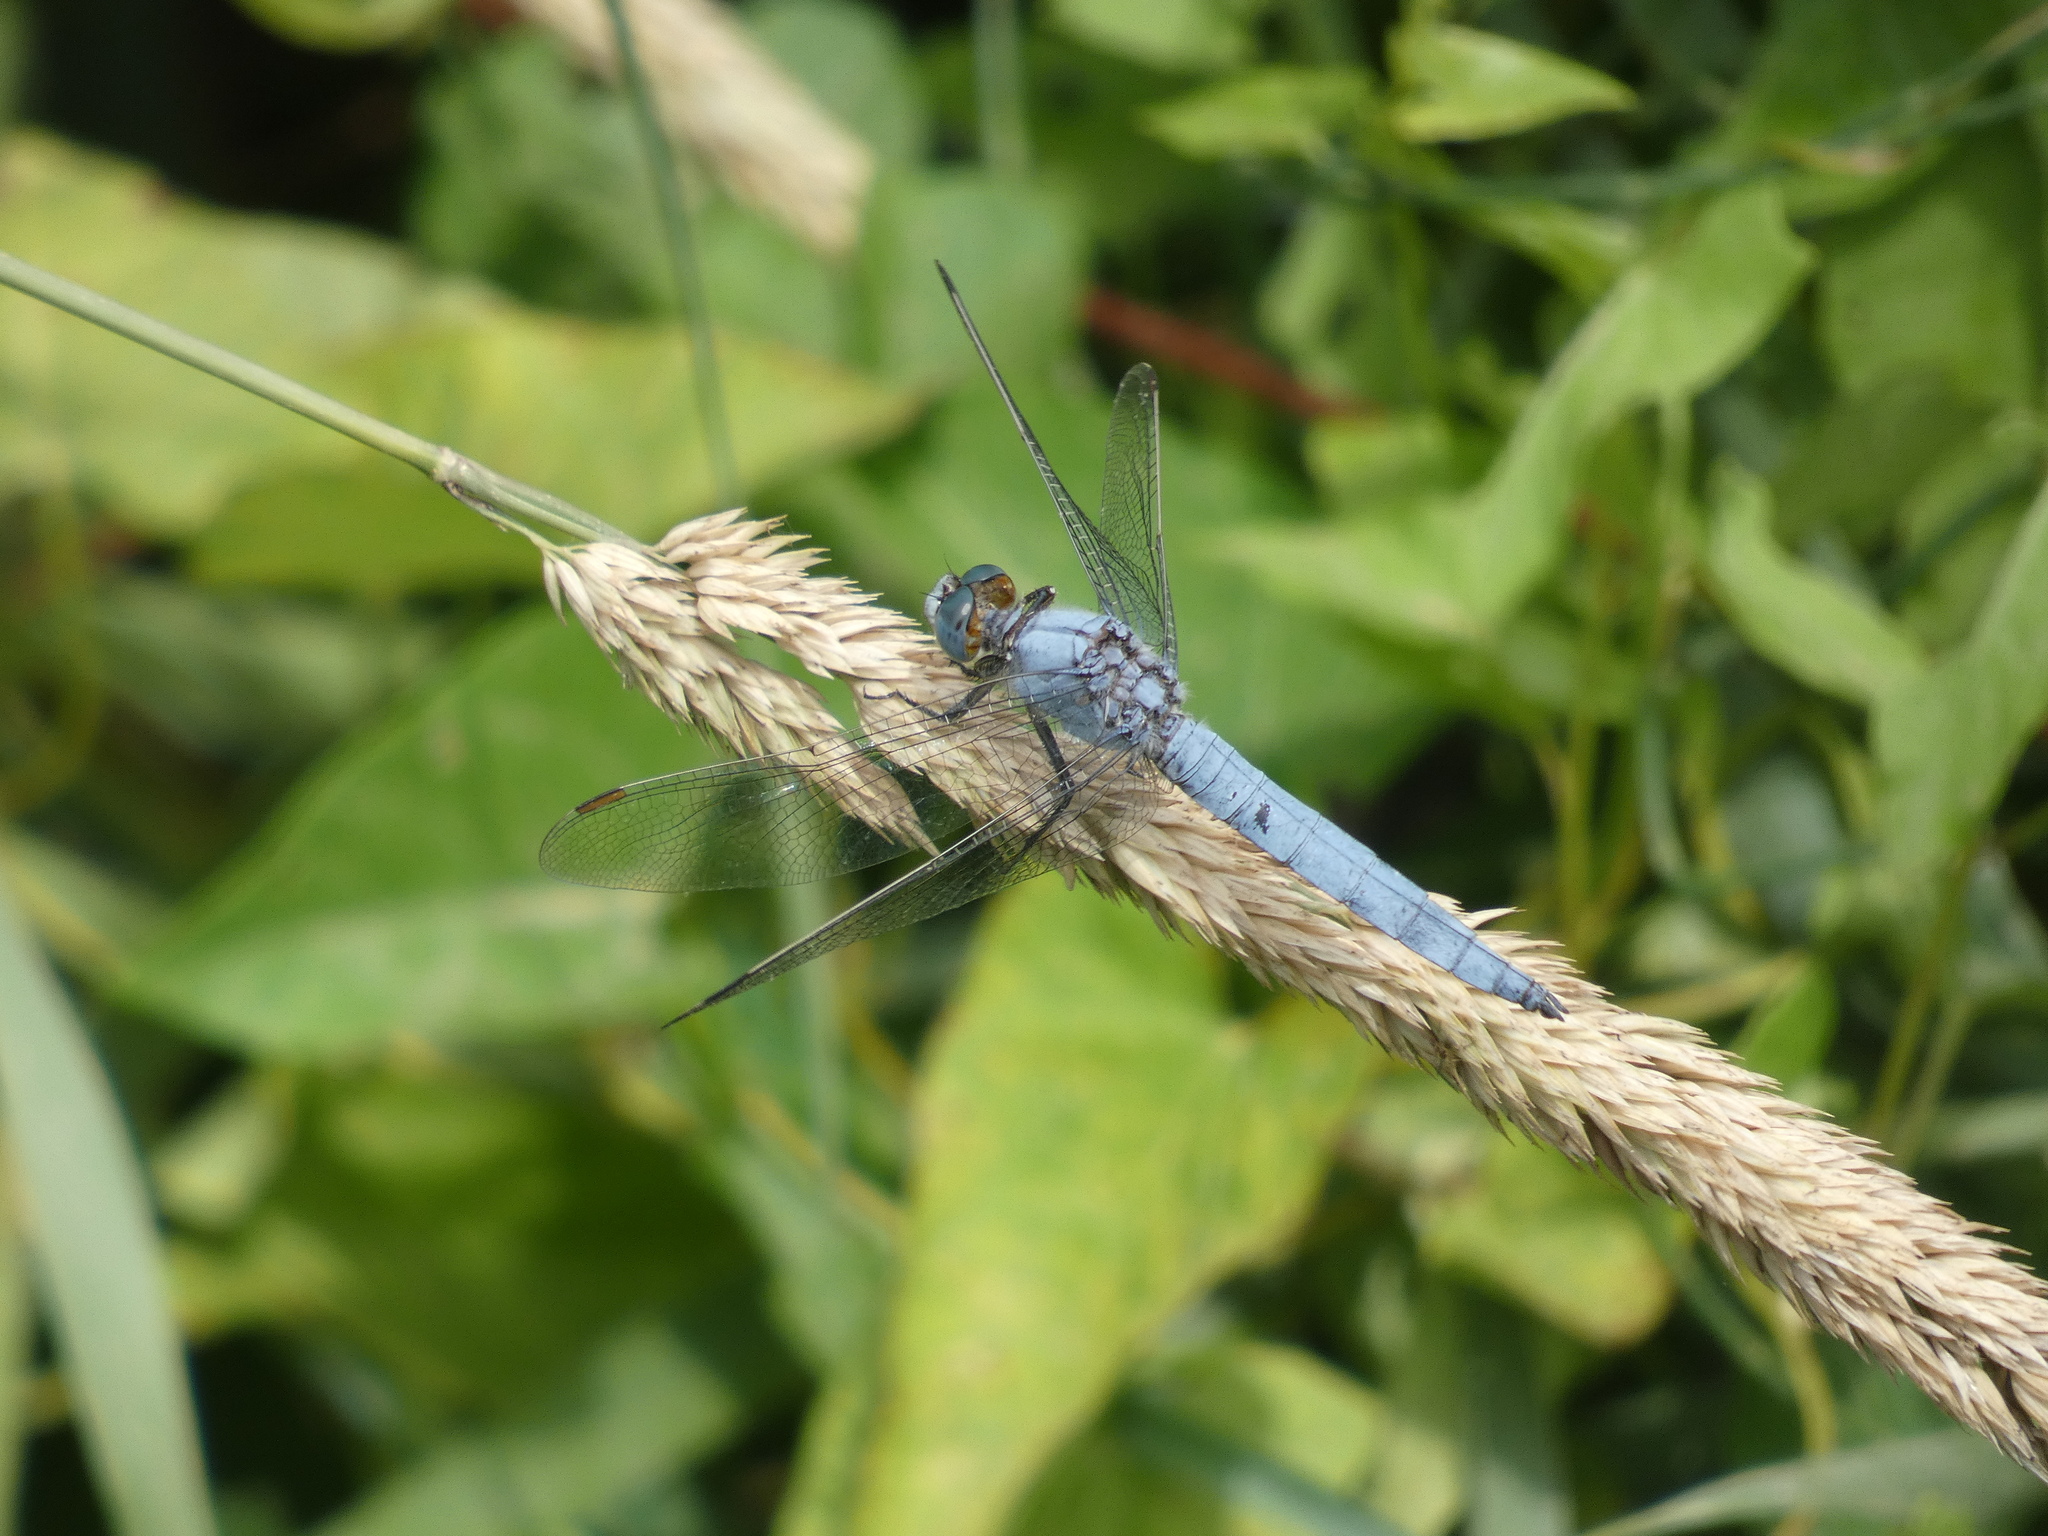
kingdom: Animalia
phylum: Arthropoda
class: Insecta
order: Odonata
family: Libellulidae
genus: Orthetrum
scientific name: Orthetrum brunneum
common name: Southern skimmer
